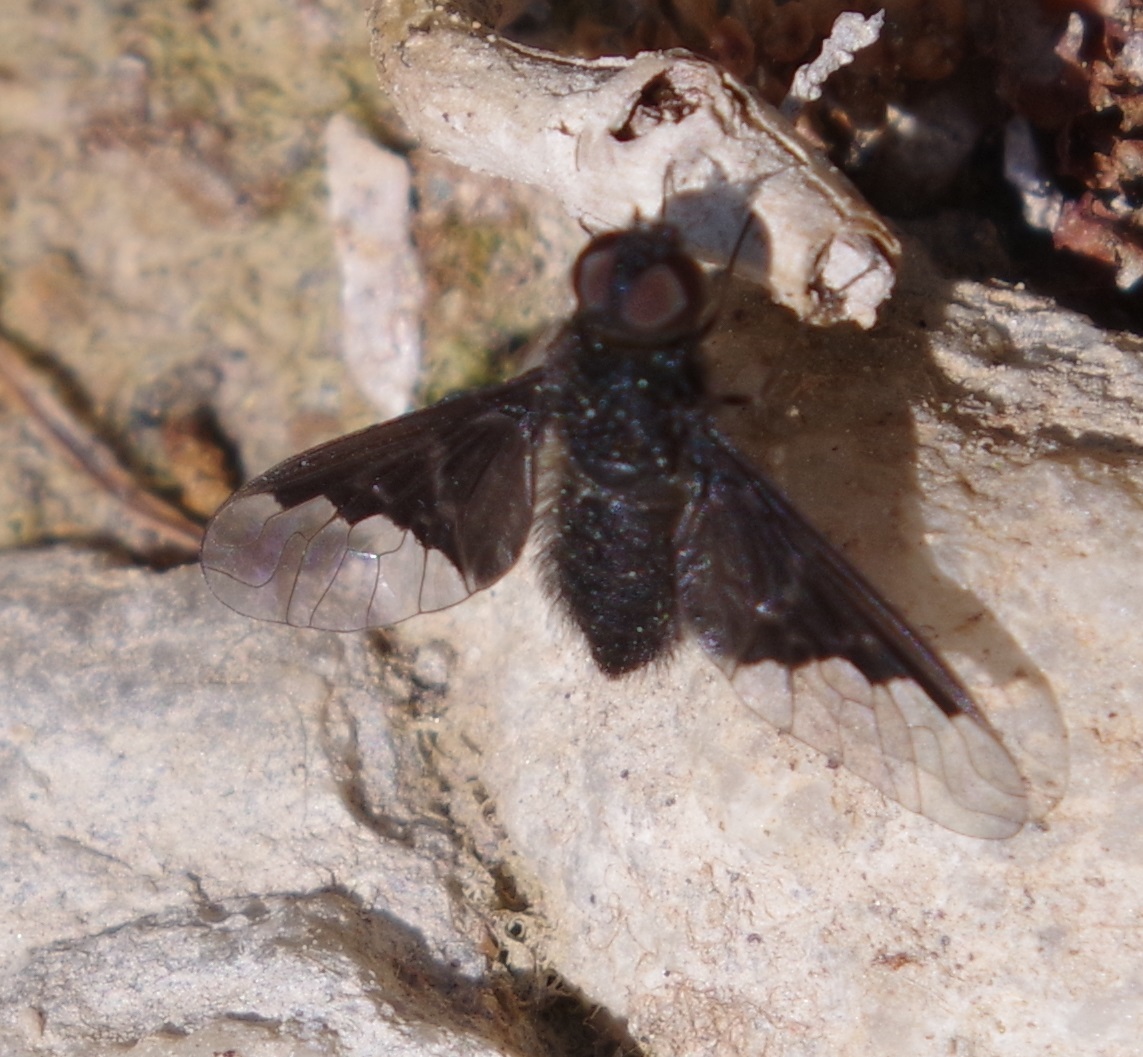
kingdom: Animalia
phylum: Arthropoda
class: Insecta
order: Diptera
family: Bombyliidae
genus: Hemipenthes
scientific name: Hemipenthes morio
